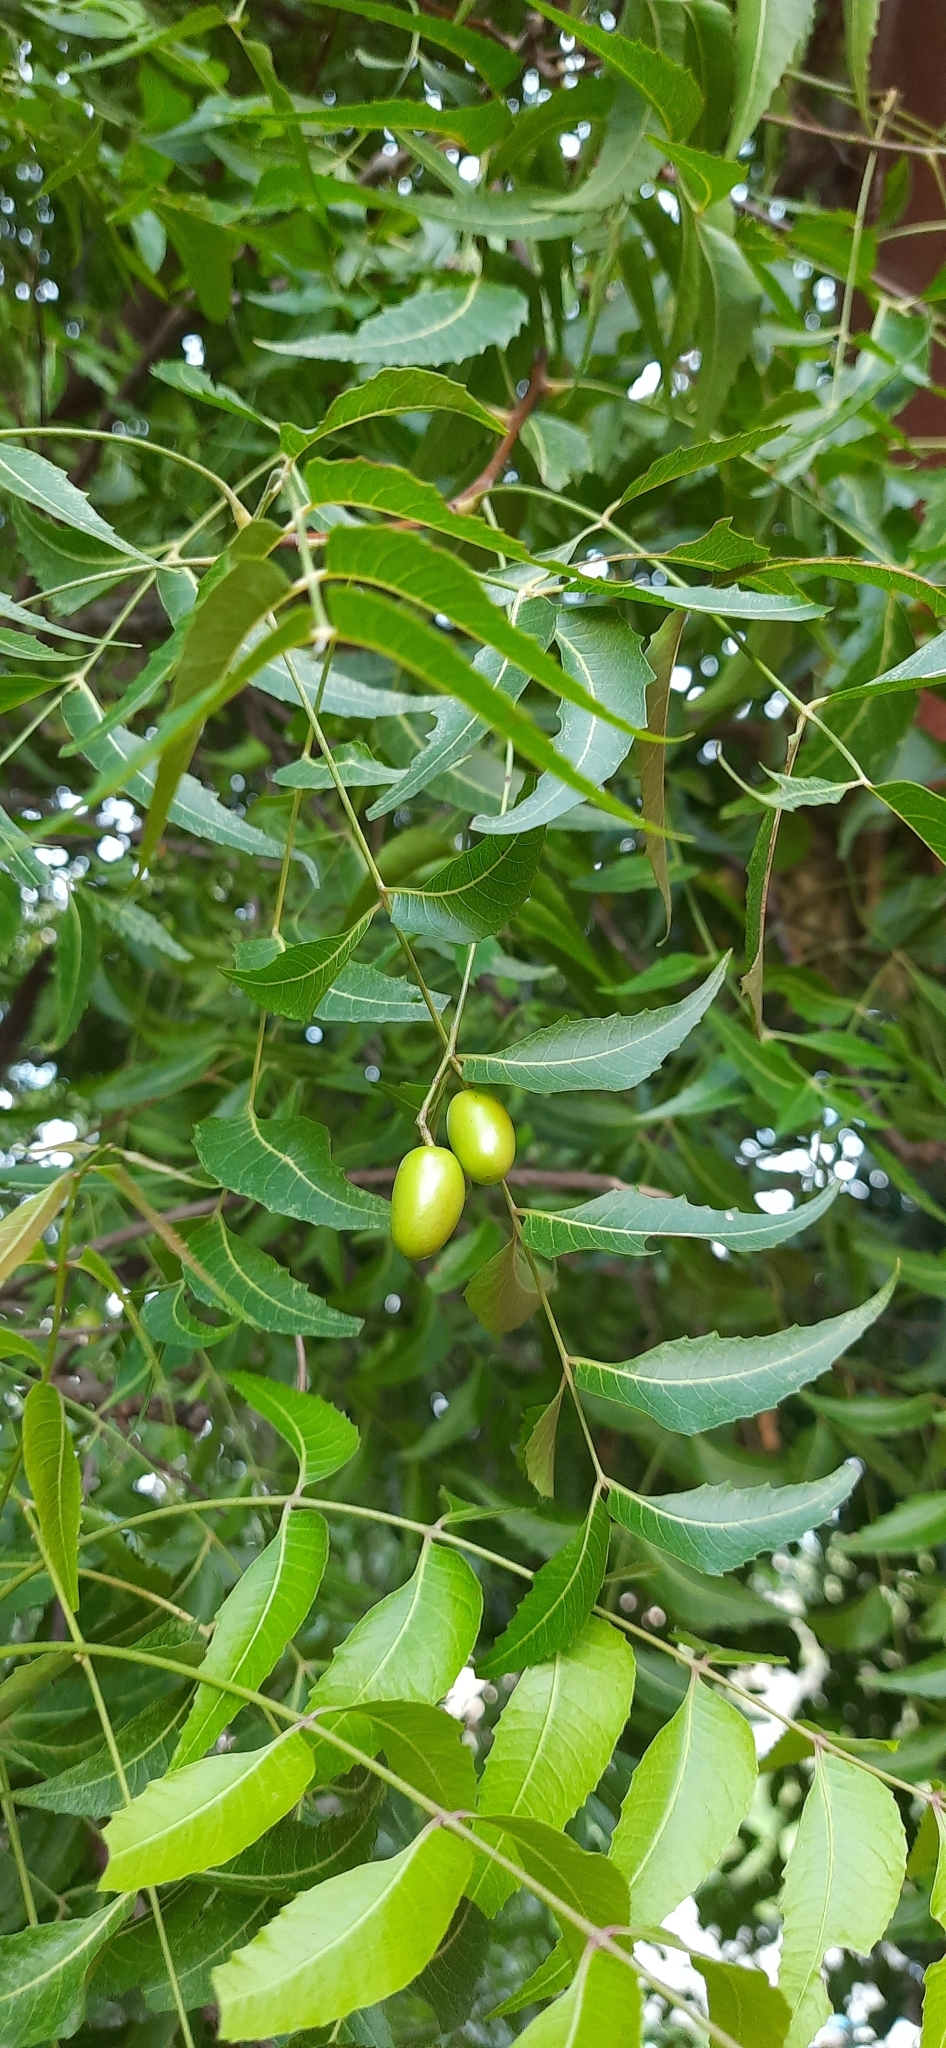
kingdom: Plantae
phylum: Tracheophyta
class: Magnoliopsida
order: Sapindales
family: Meliaceae
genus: Azadirachta
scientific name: Azadirachta indica
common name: Neem
